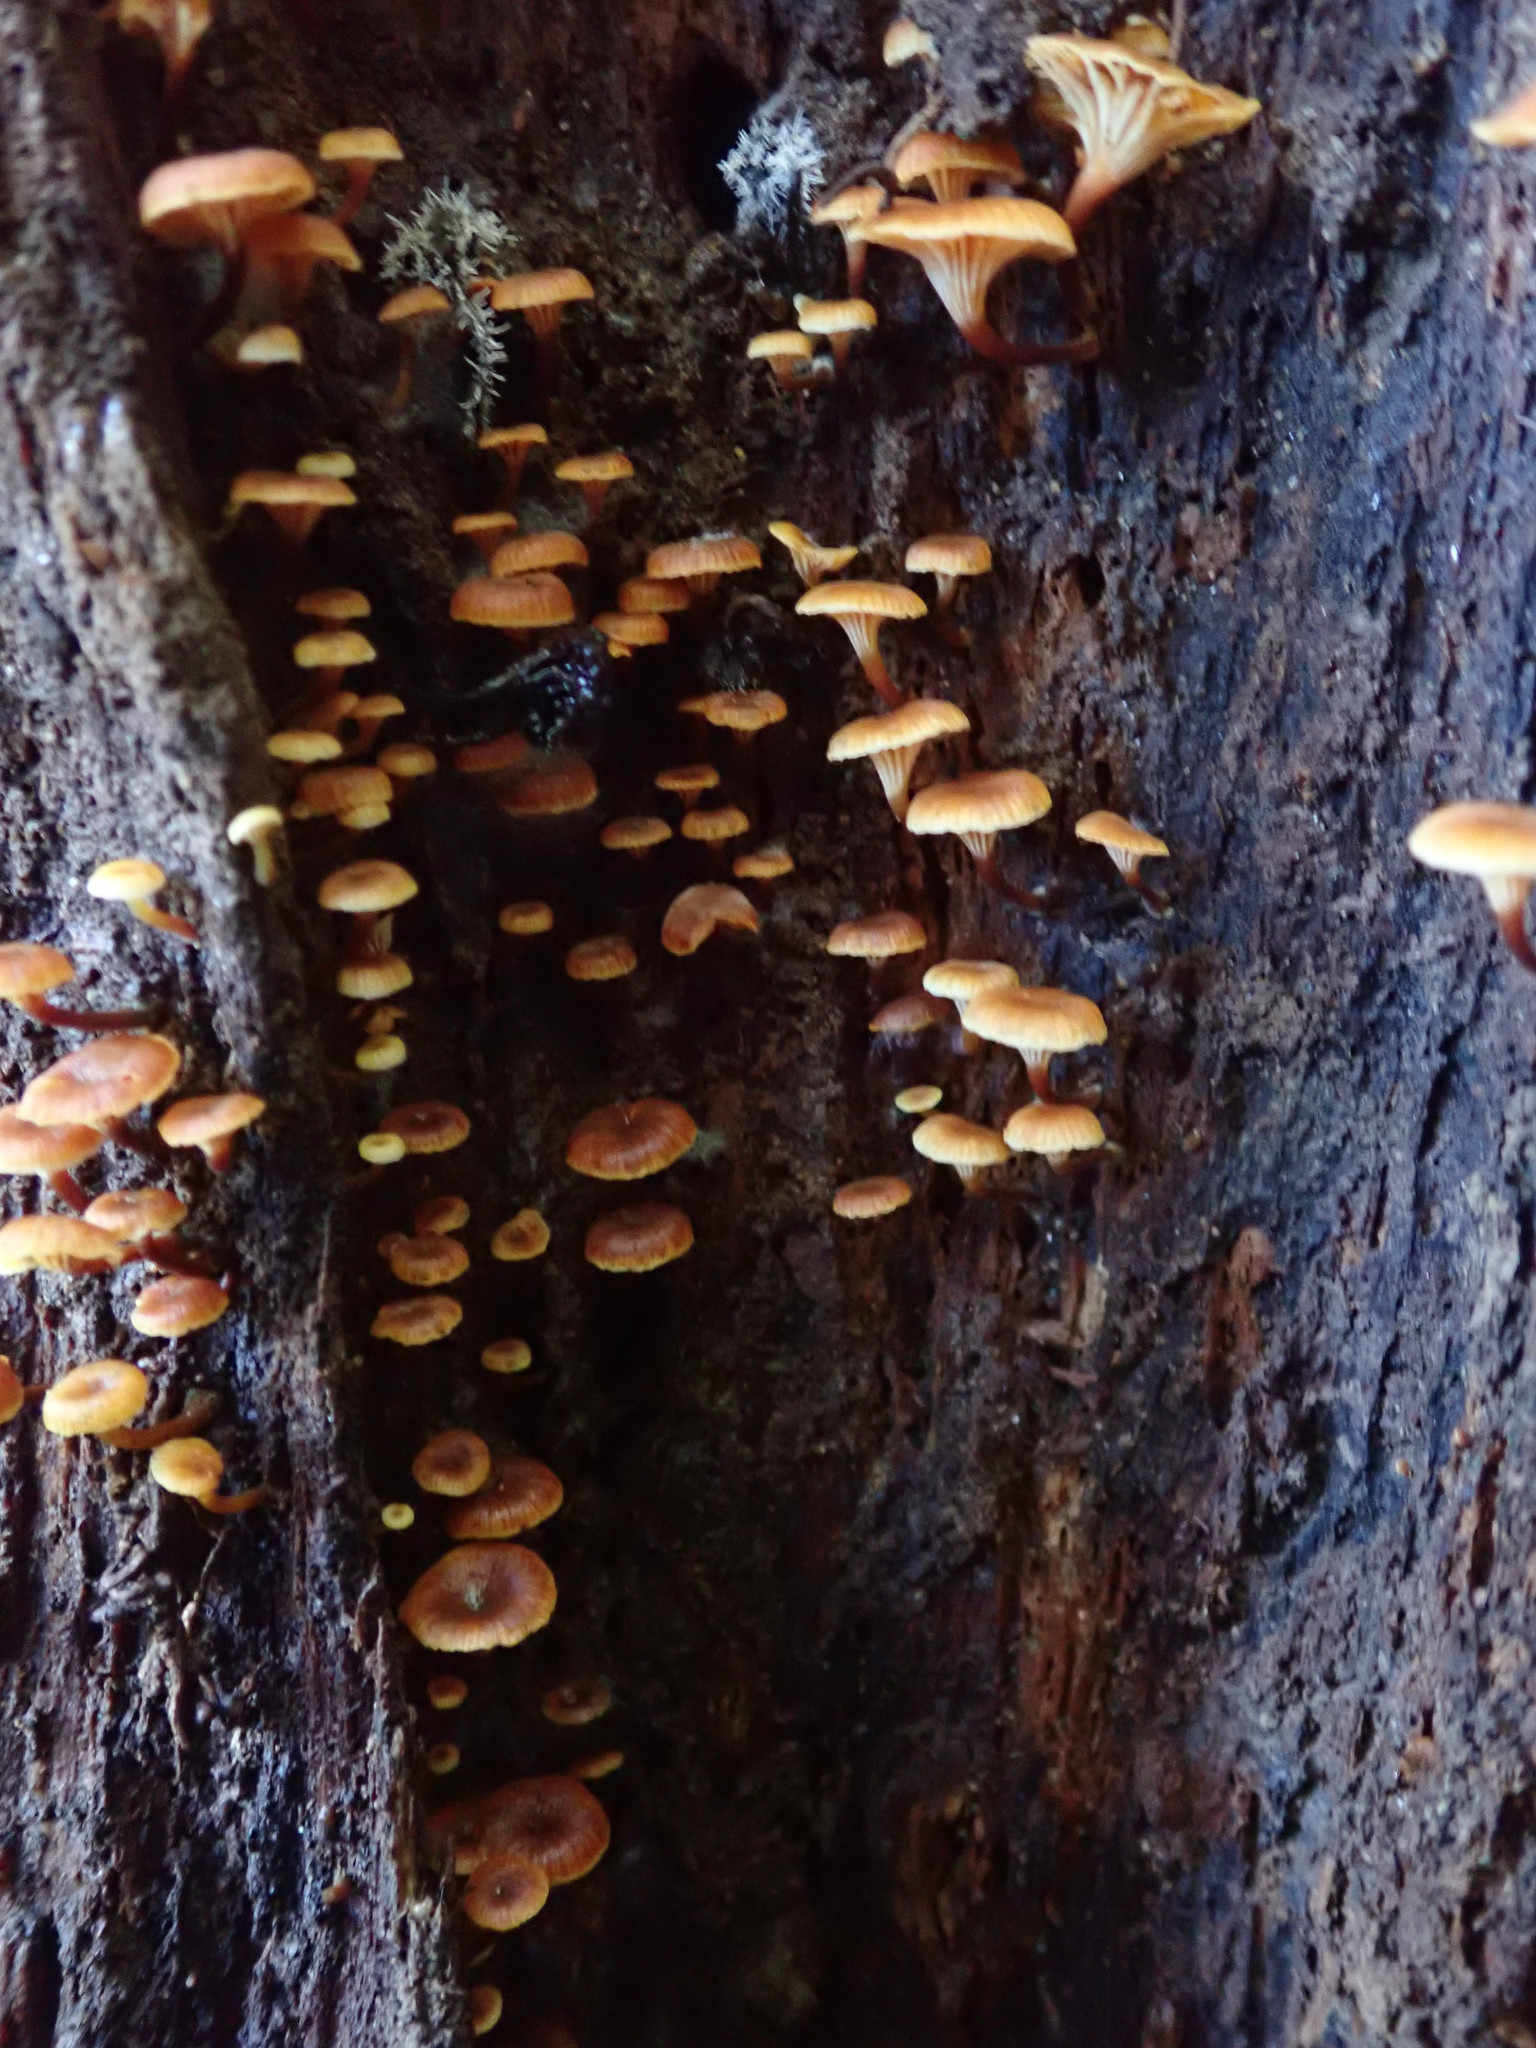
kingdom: Fungi
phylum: Basidiomycota
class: Agaricomycetes
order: Agaricales
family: Mycenaceae
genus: Xeromphalina
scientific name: Xeromphalina campanella
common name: Pinewood gingertail
